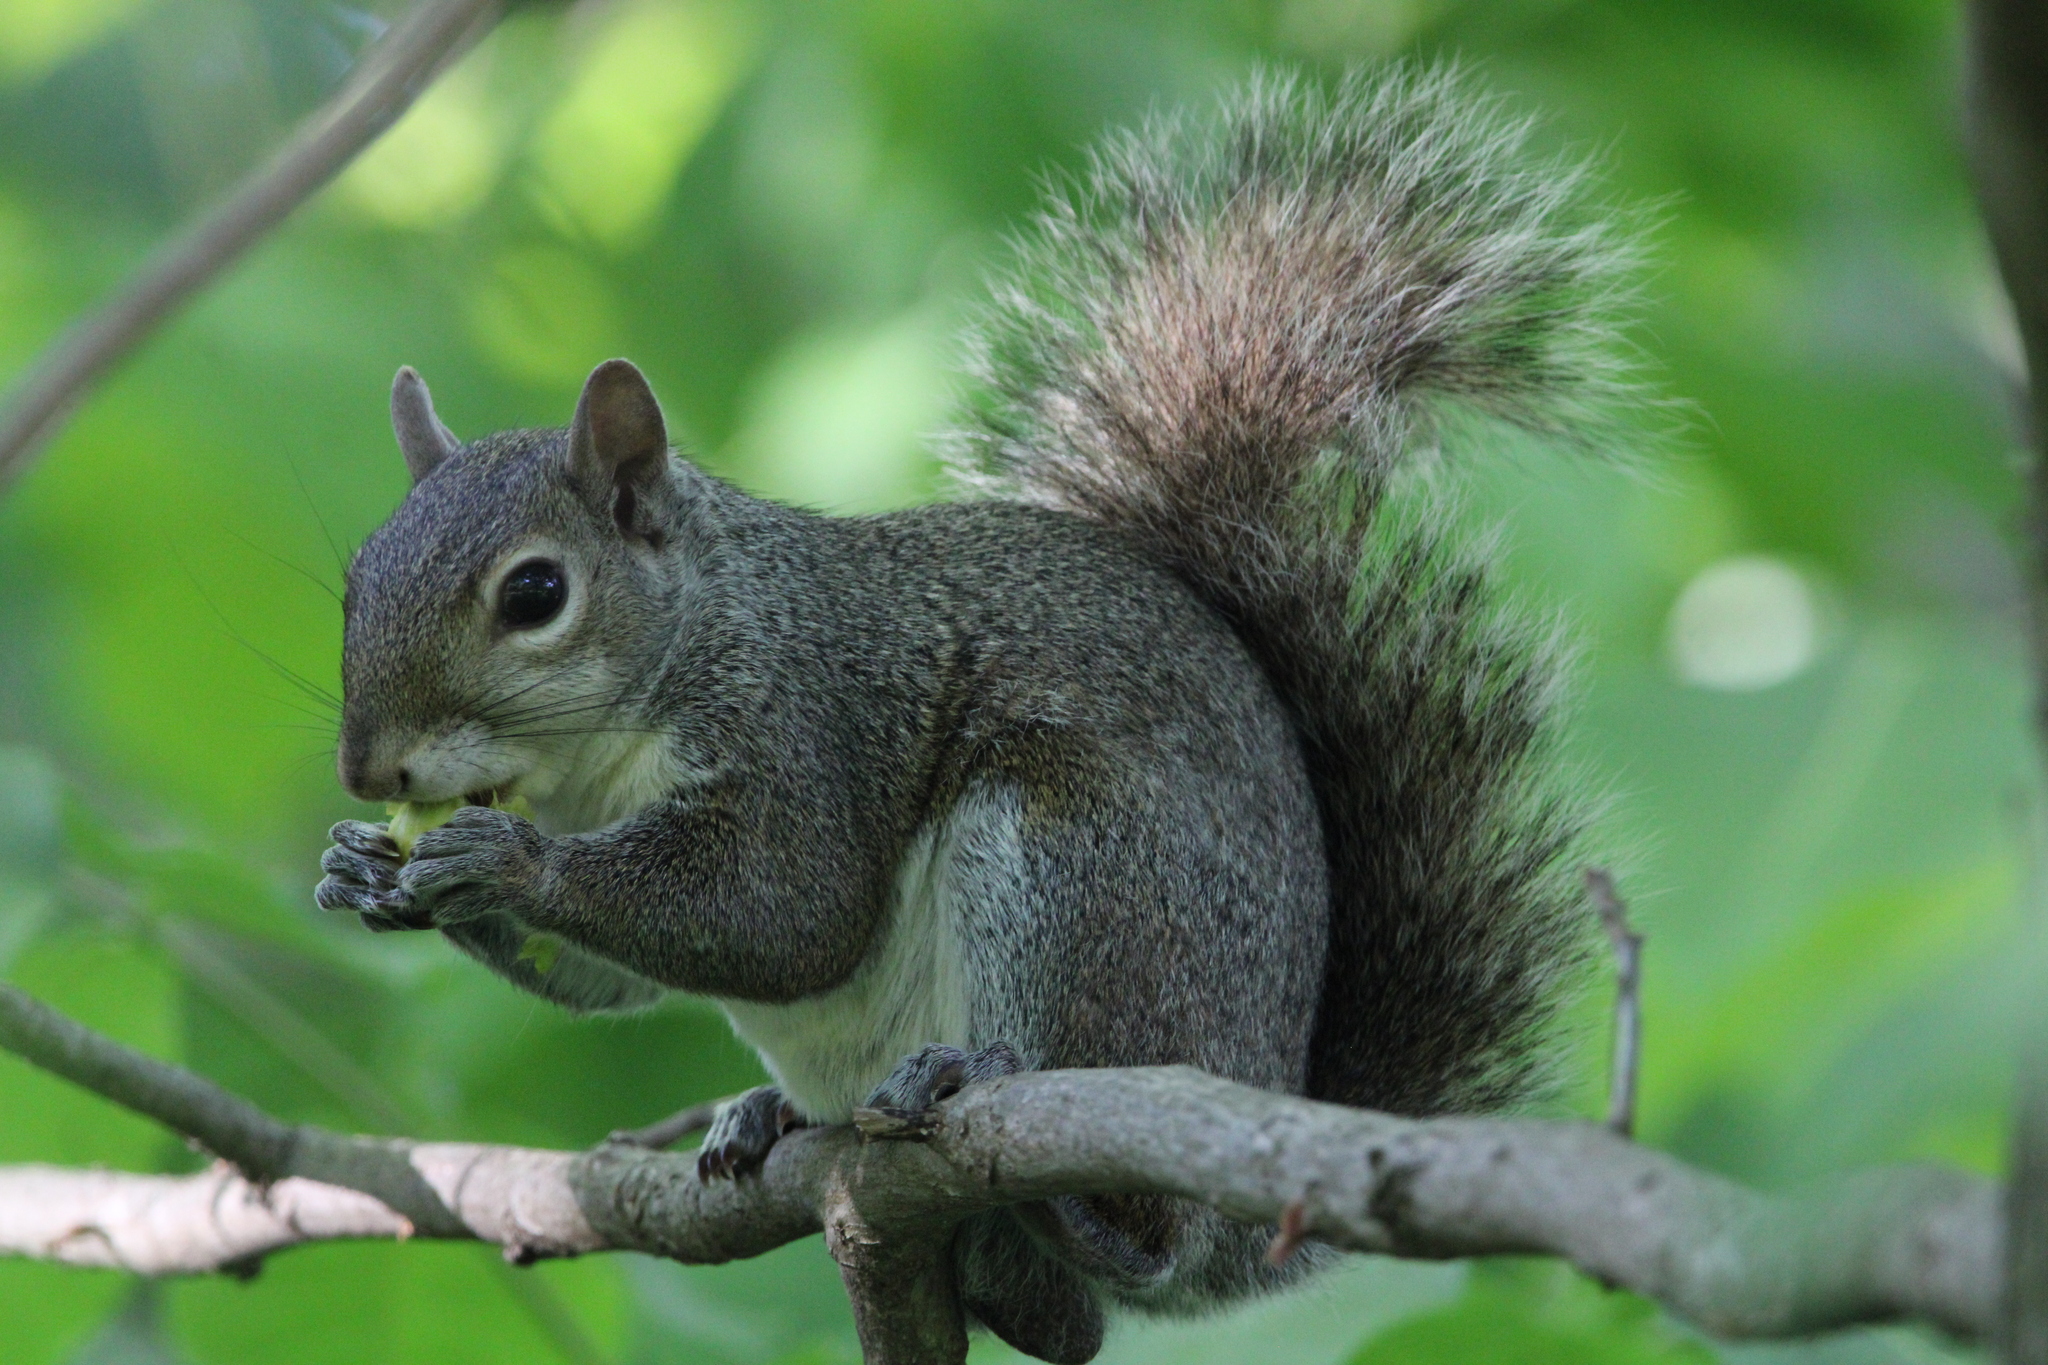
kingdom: Animalia
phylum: Chordata
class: Mammalia
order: Rodentia
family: Sciuridae
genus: Sciurus
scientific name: Sciurus carolinensis
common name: Eastern gray squirrel
